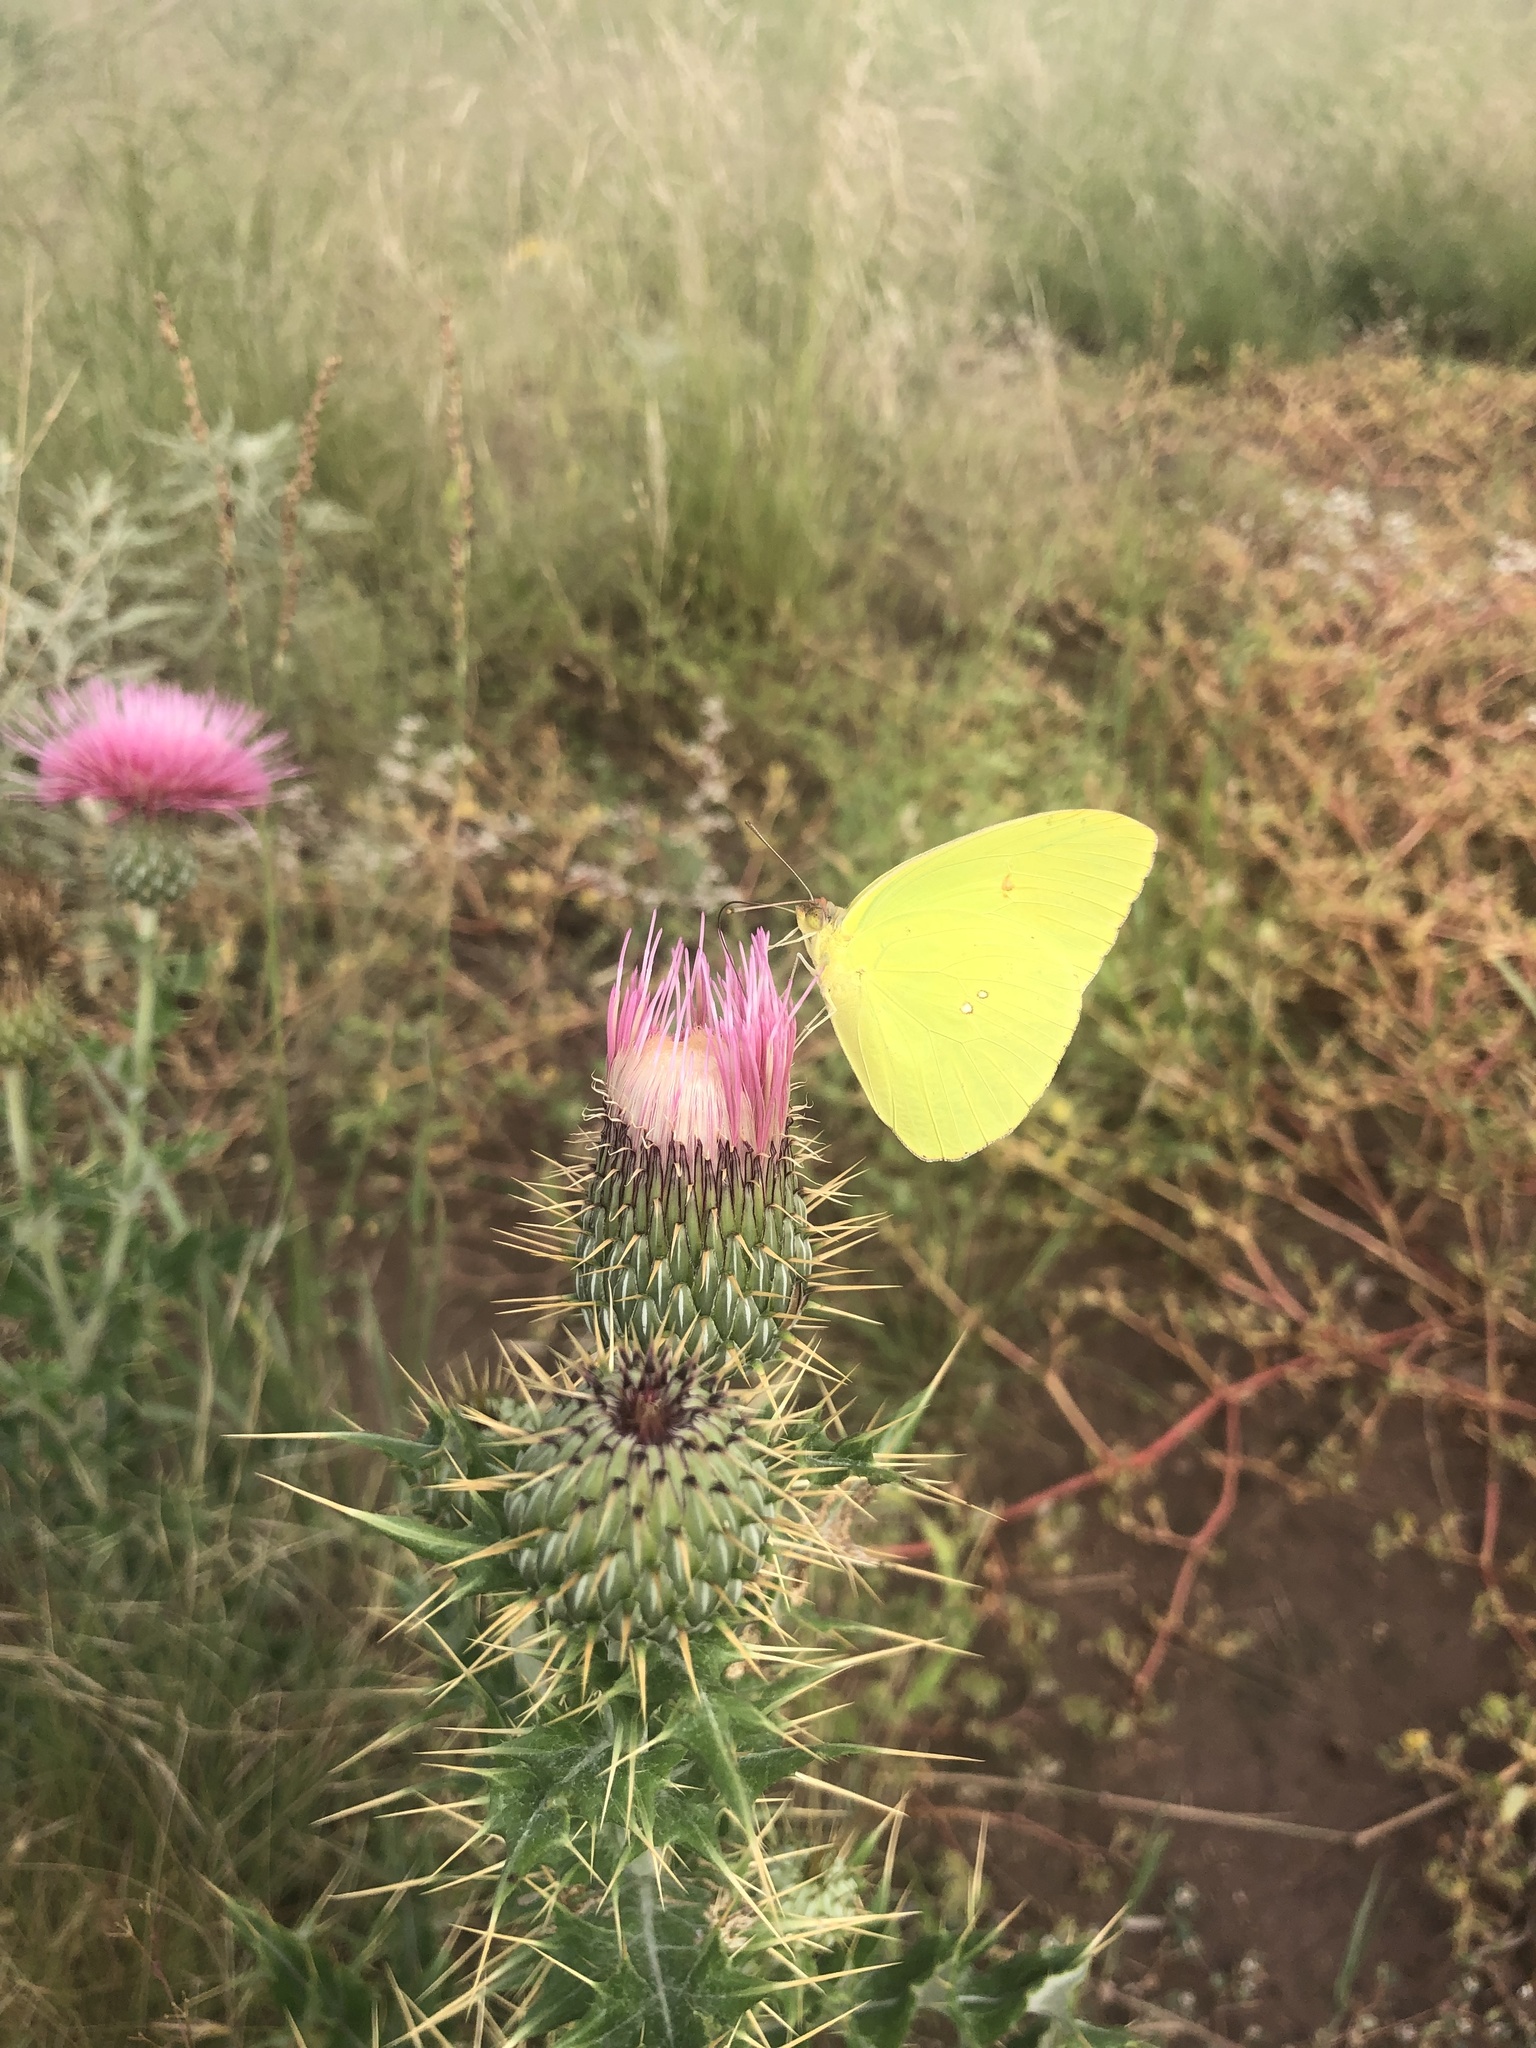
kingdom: Animalia
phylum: Arthropoda
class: Insecta
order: Lepidoptera
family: Pieridae
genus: Phoebis
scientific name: Phoebis sennae
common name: Cloudless sulphur
